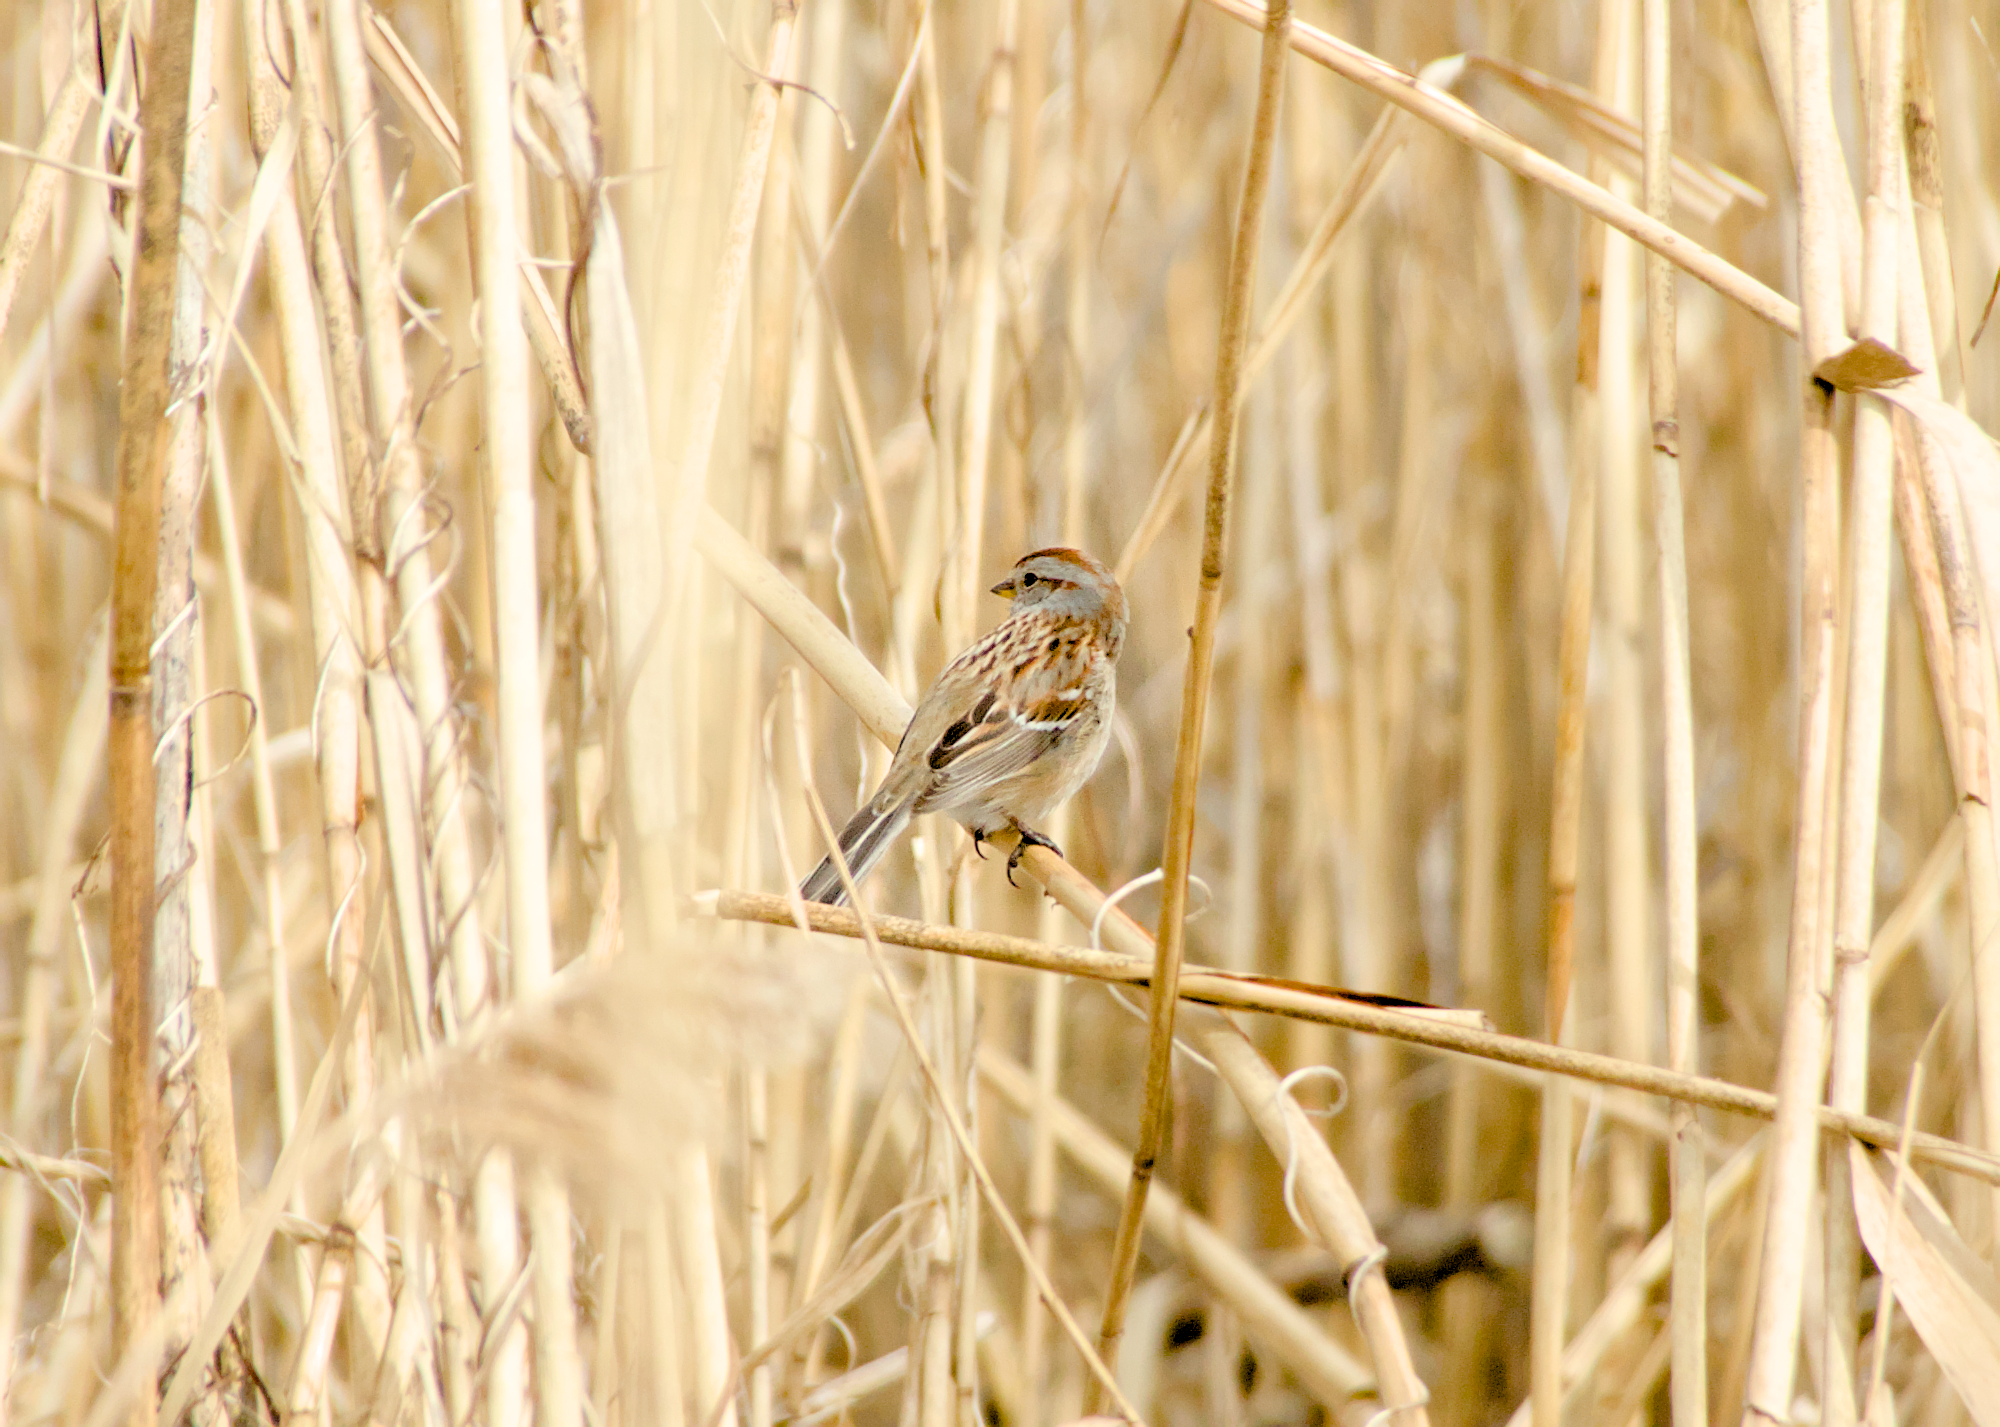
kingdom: Animalia
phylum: Chordata
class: Aves
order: Passeriformes
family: Passerellidae
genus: Spizelloides
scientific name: Spizelloides arborea
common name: American tree sparrow
